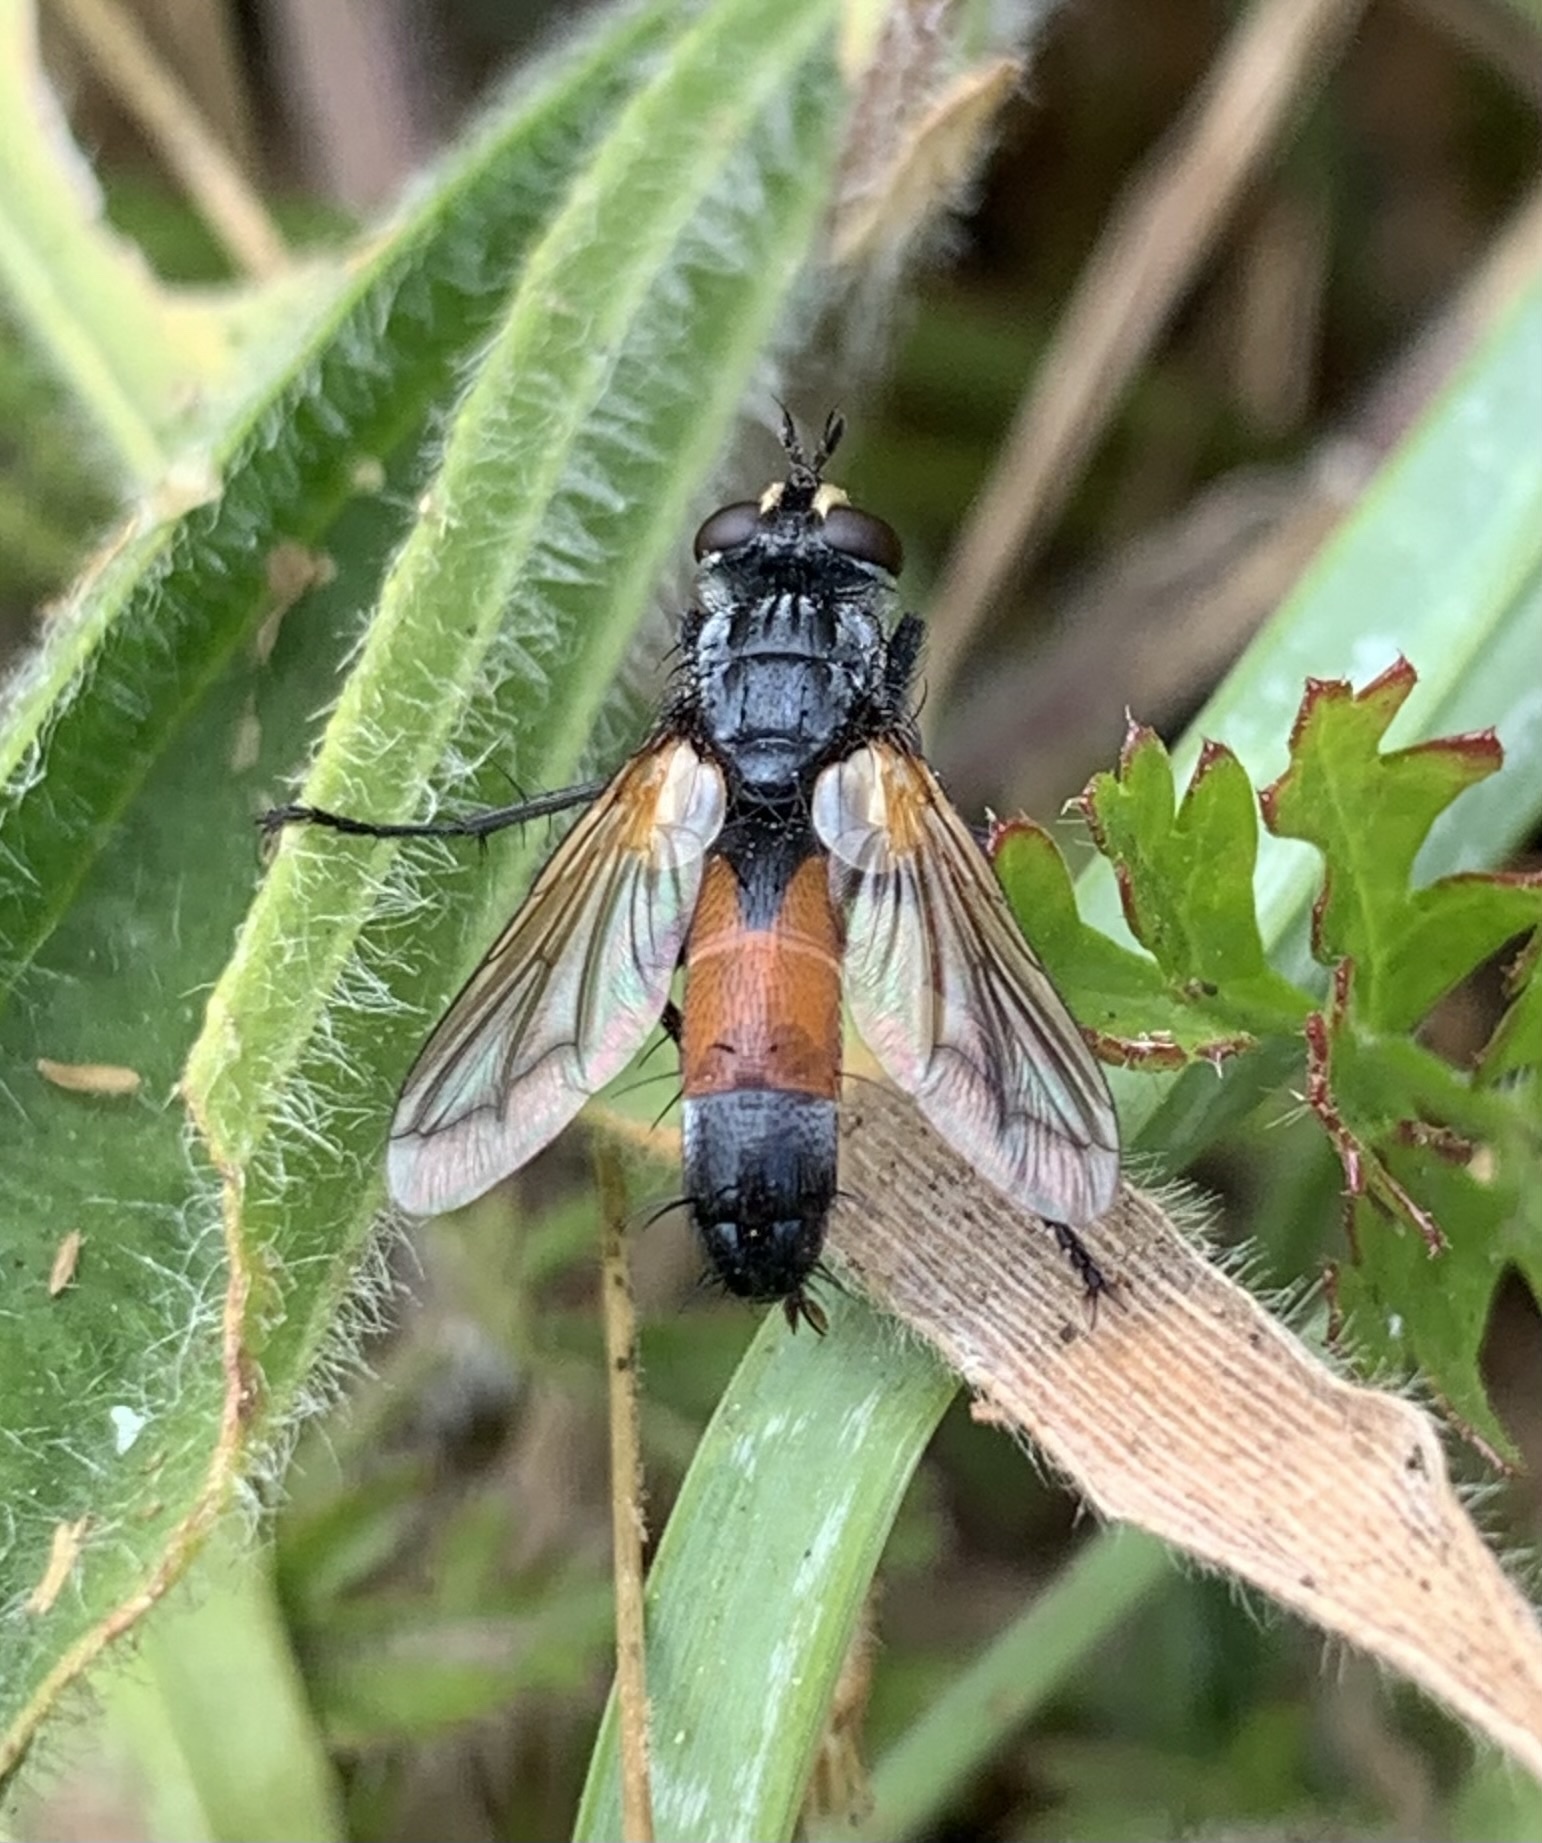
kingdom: Animalia
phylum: Arthropoda
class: Insecta
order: Diptera
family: Tachinidae
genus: Cylindromyia
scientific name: Cylindromyia brassicaria
